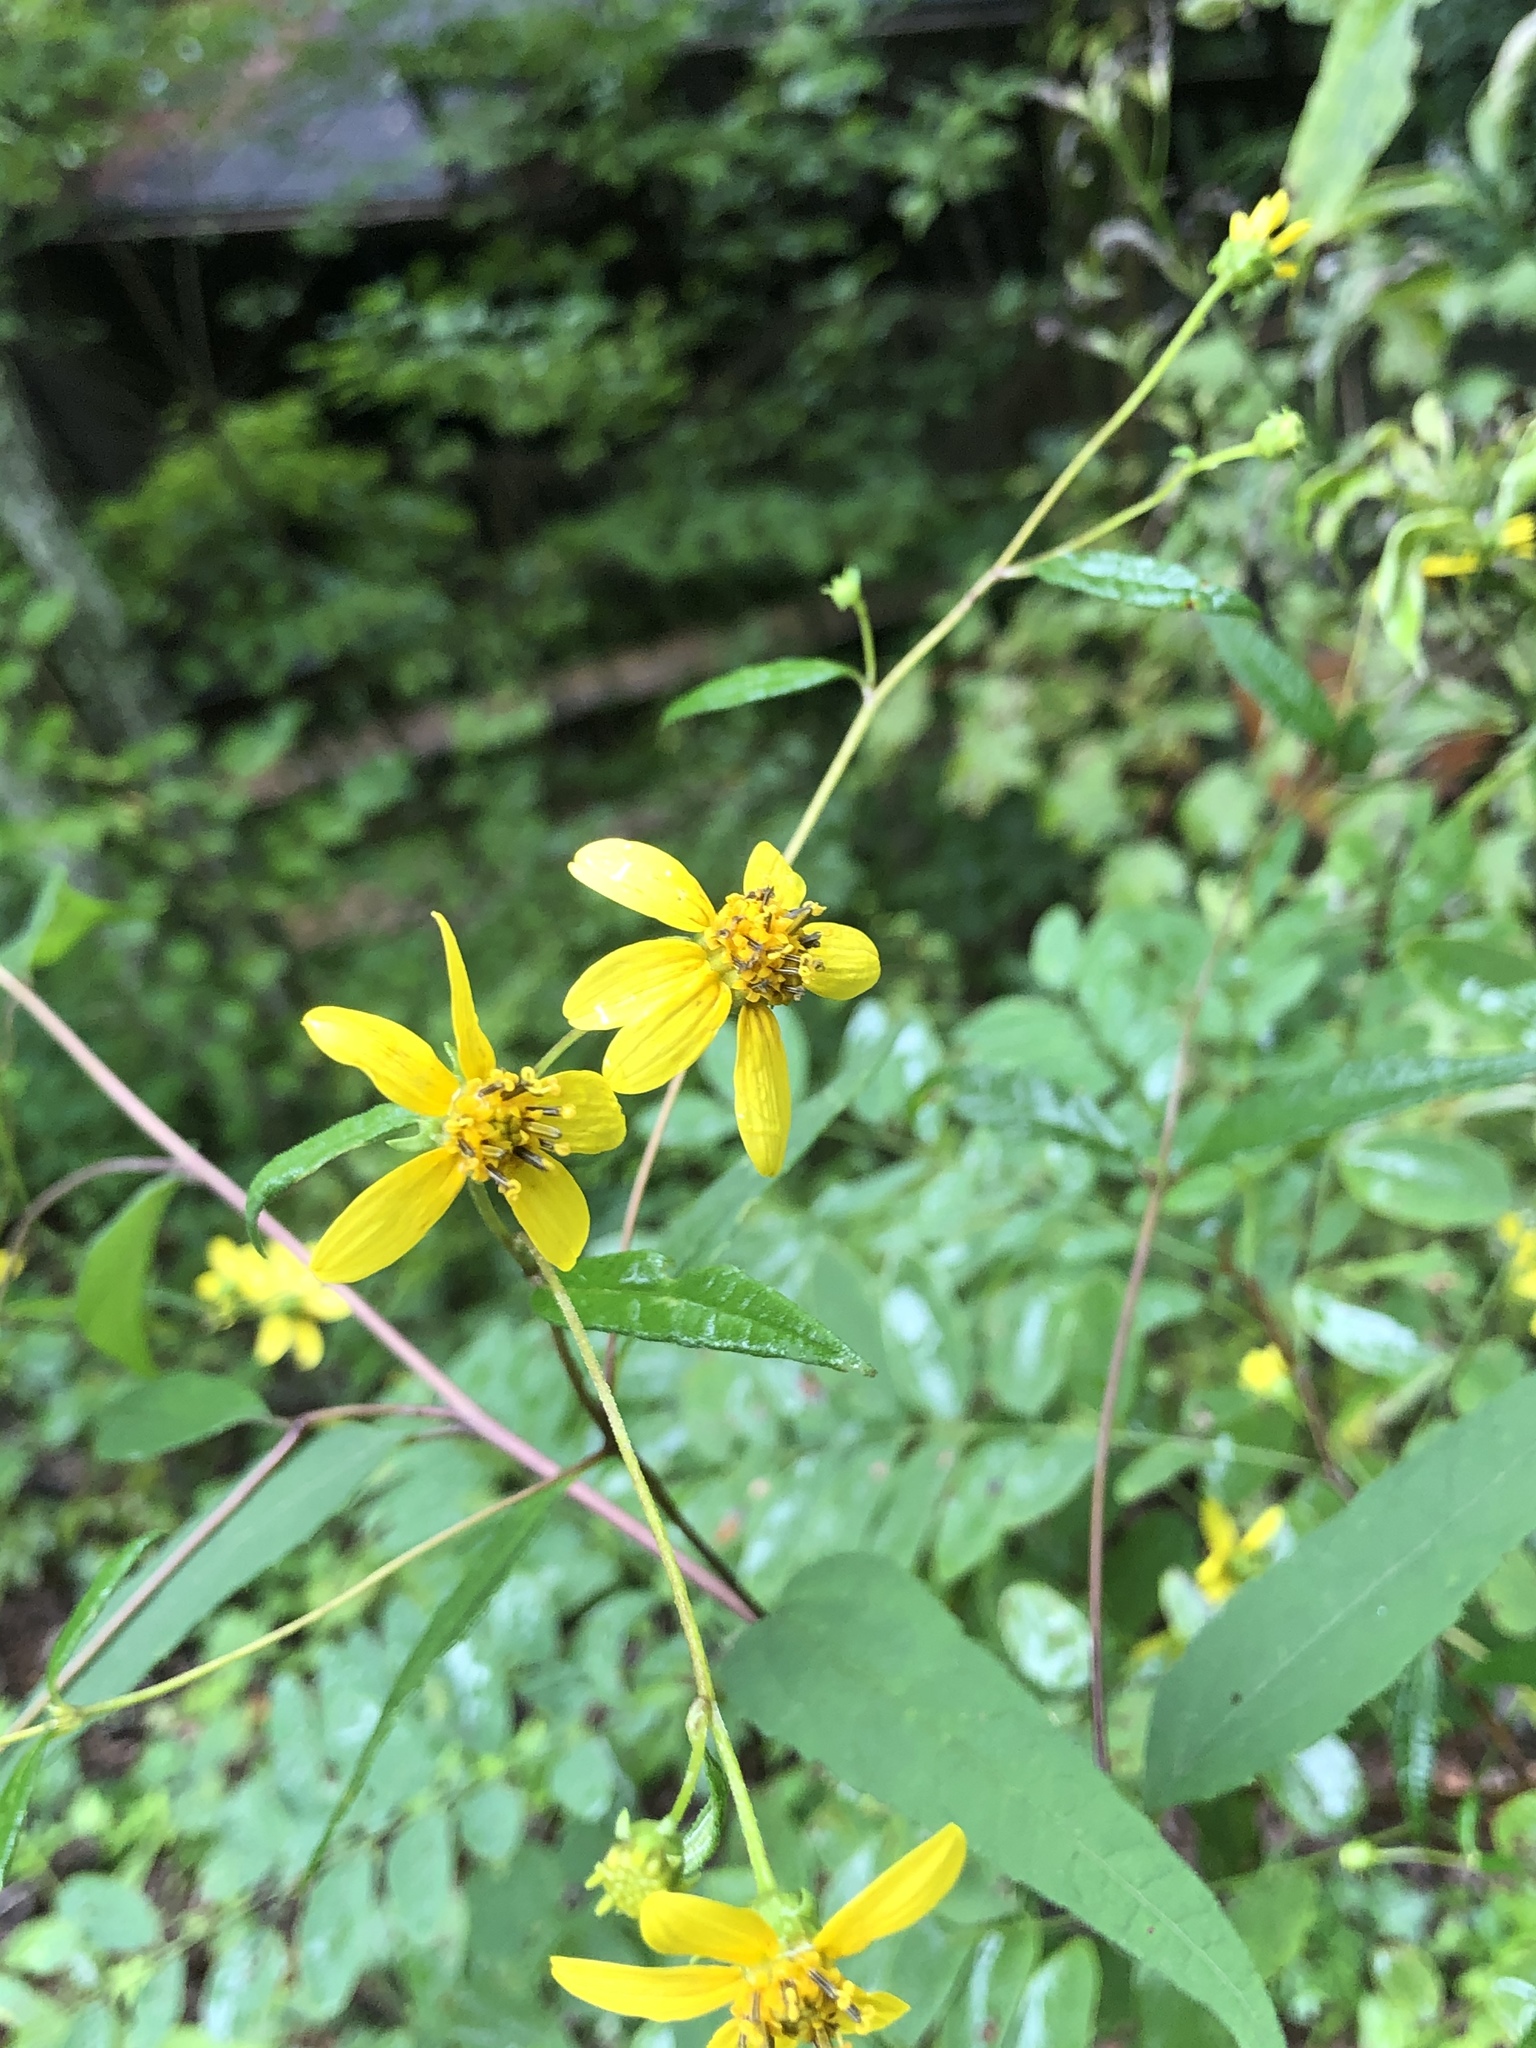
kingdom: Plantae
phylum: Tracheophyta
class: Magnoliopsida
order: Asterales
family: Asteraceae
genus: Helianthus
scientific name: Helianthus microcephalus
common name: Woodland sunflower
